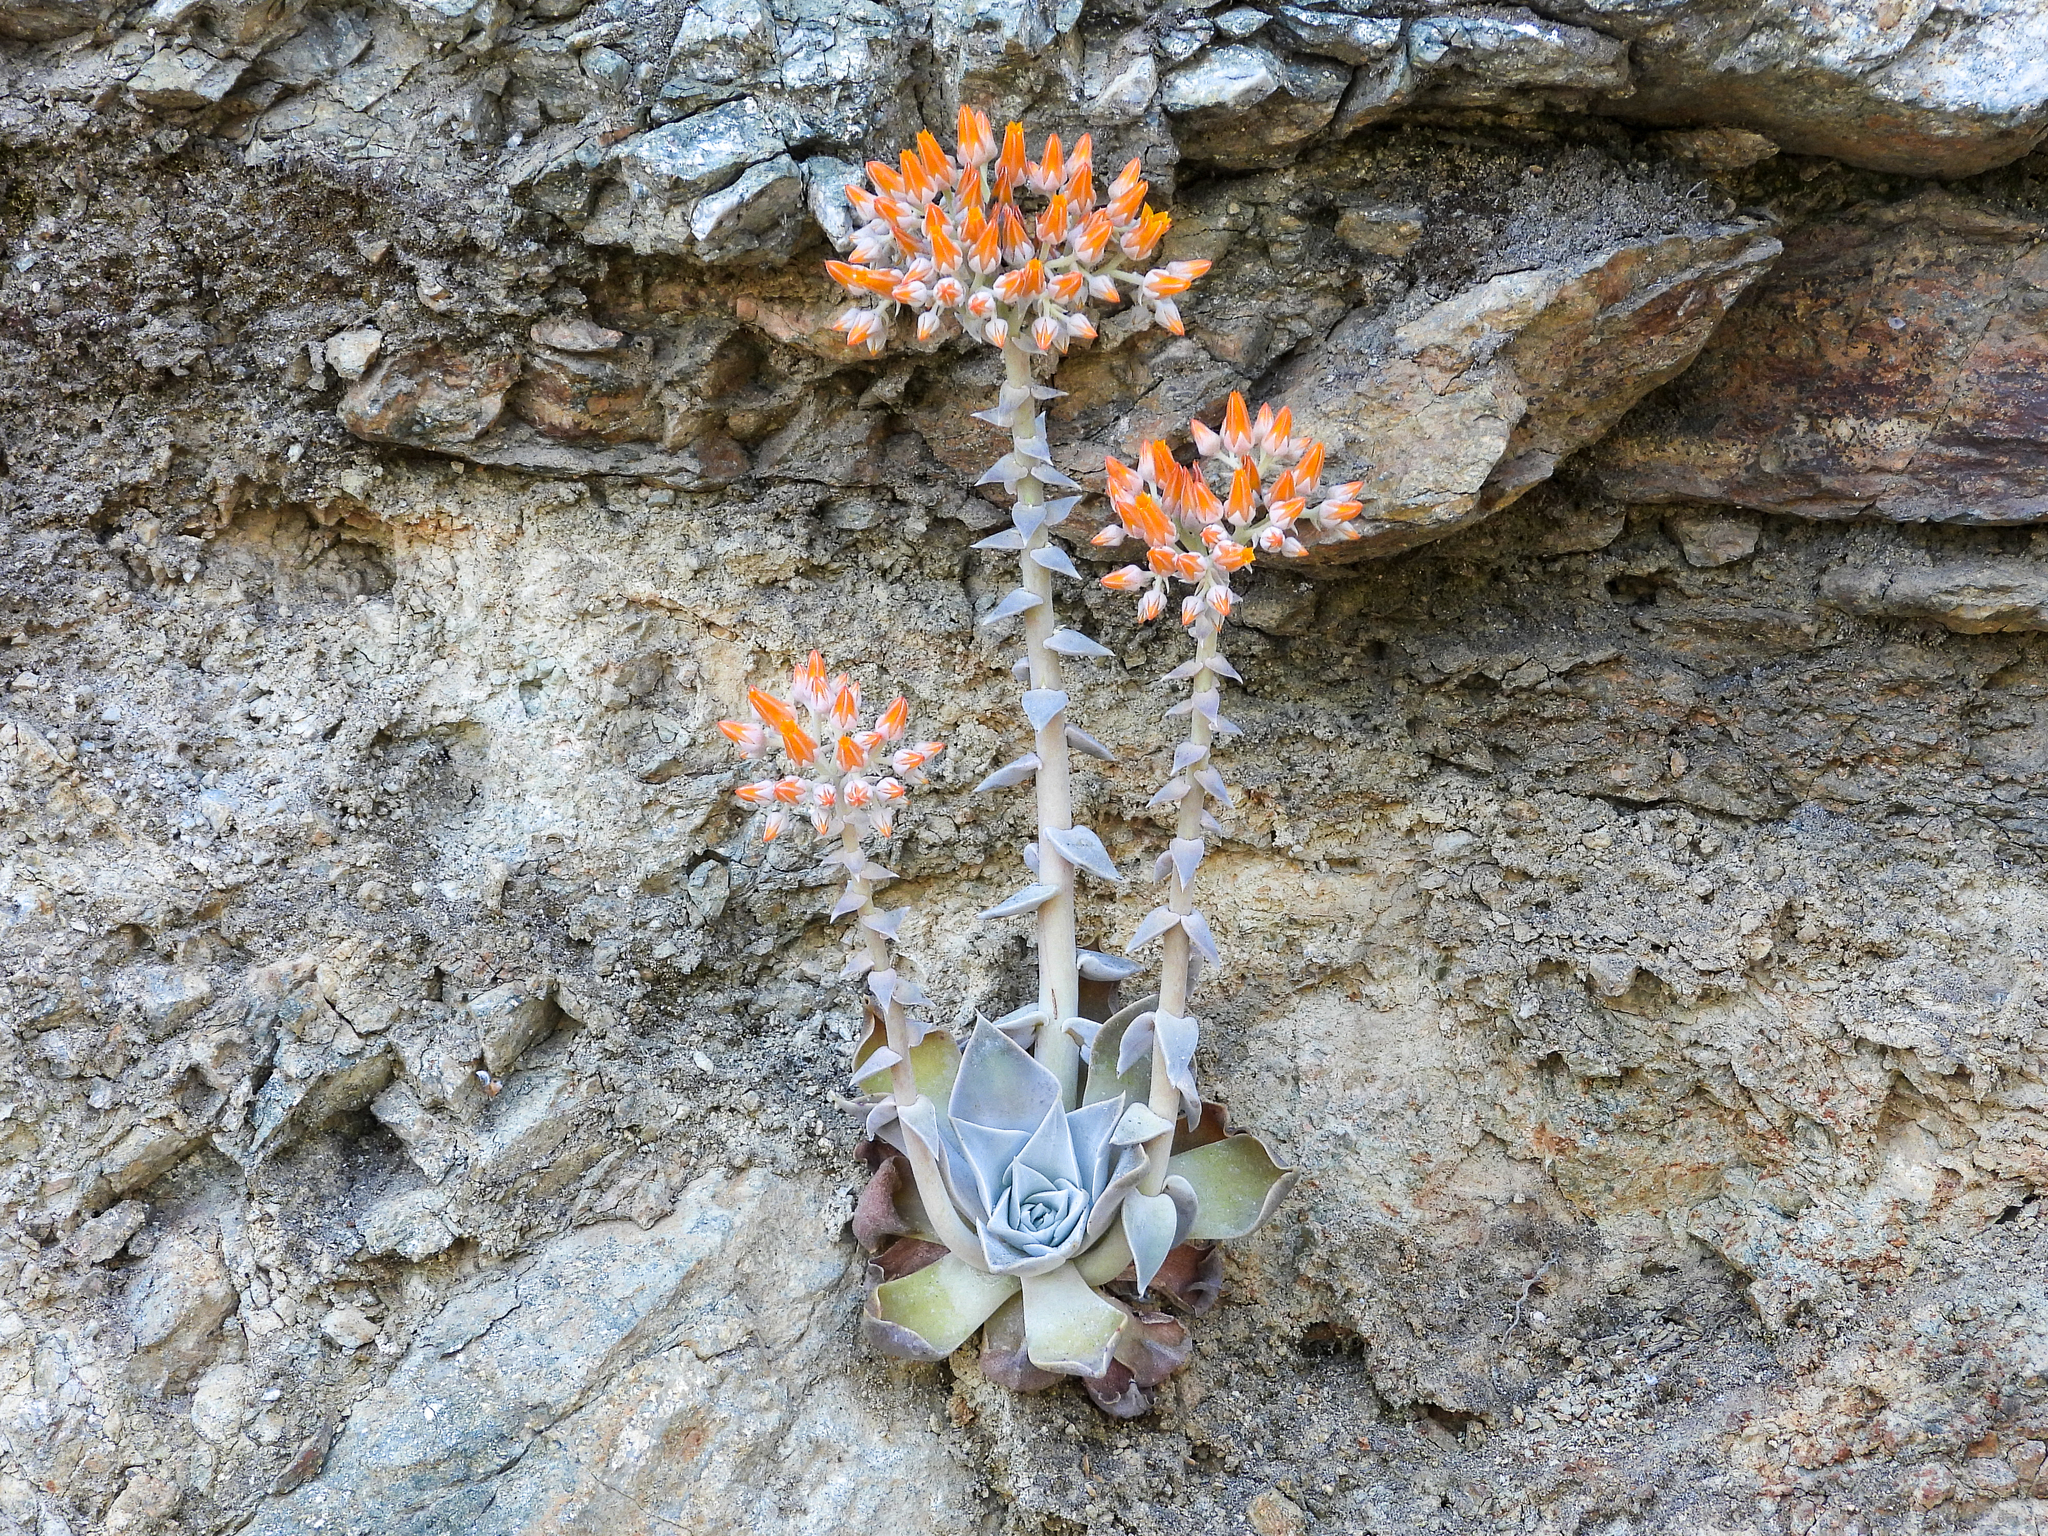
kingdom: Plantae
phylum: Tracheophyta
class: Magnoliopsida
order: Saxifragales
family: Crassulaceae
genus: Dudleya
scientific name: Dudleya cymosa
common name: Canyon dudleya
